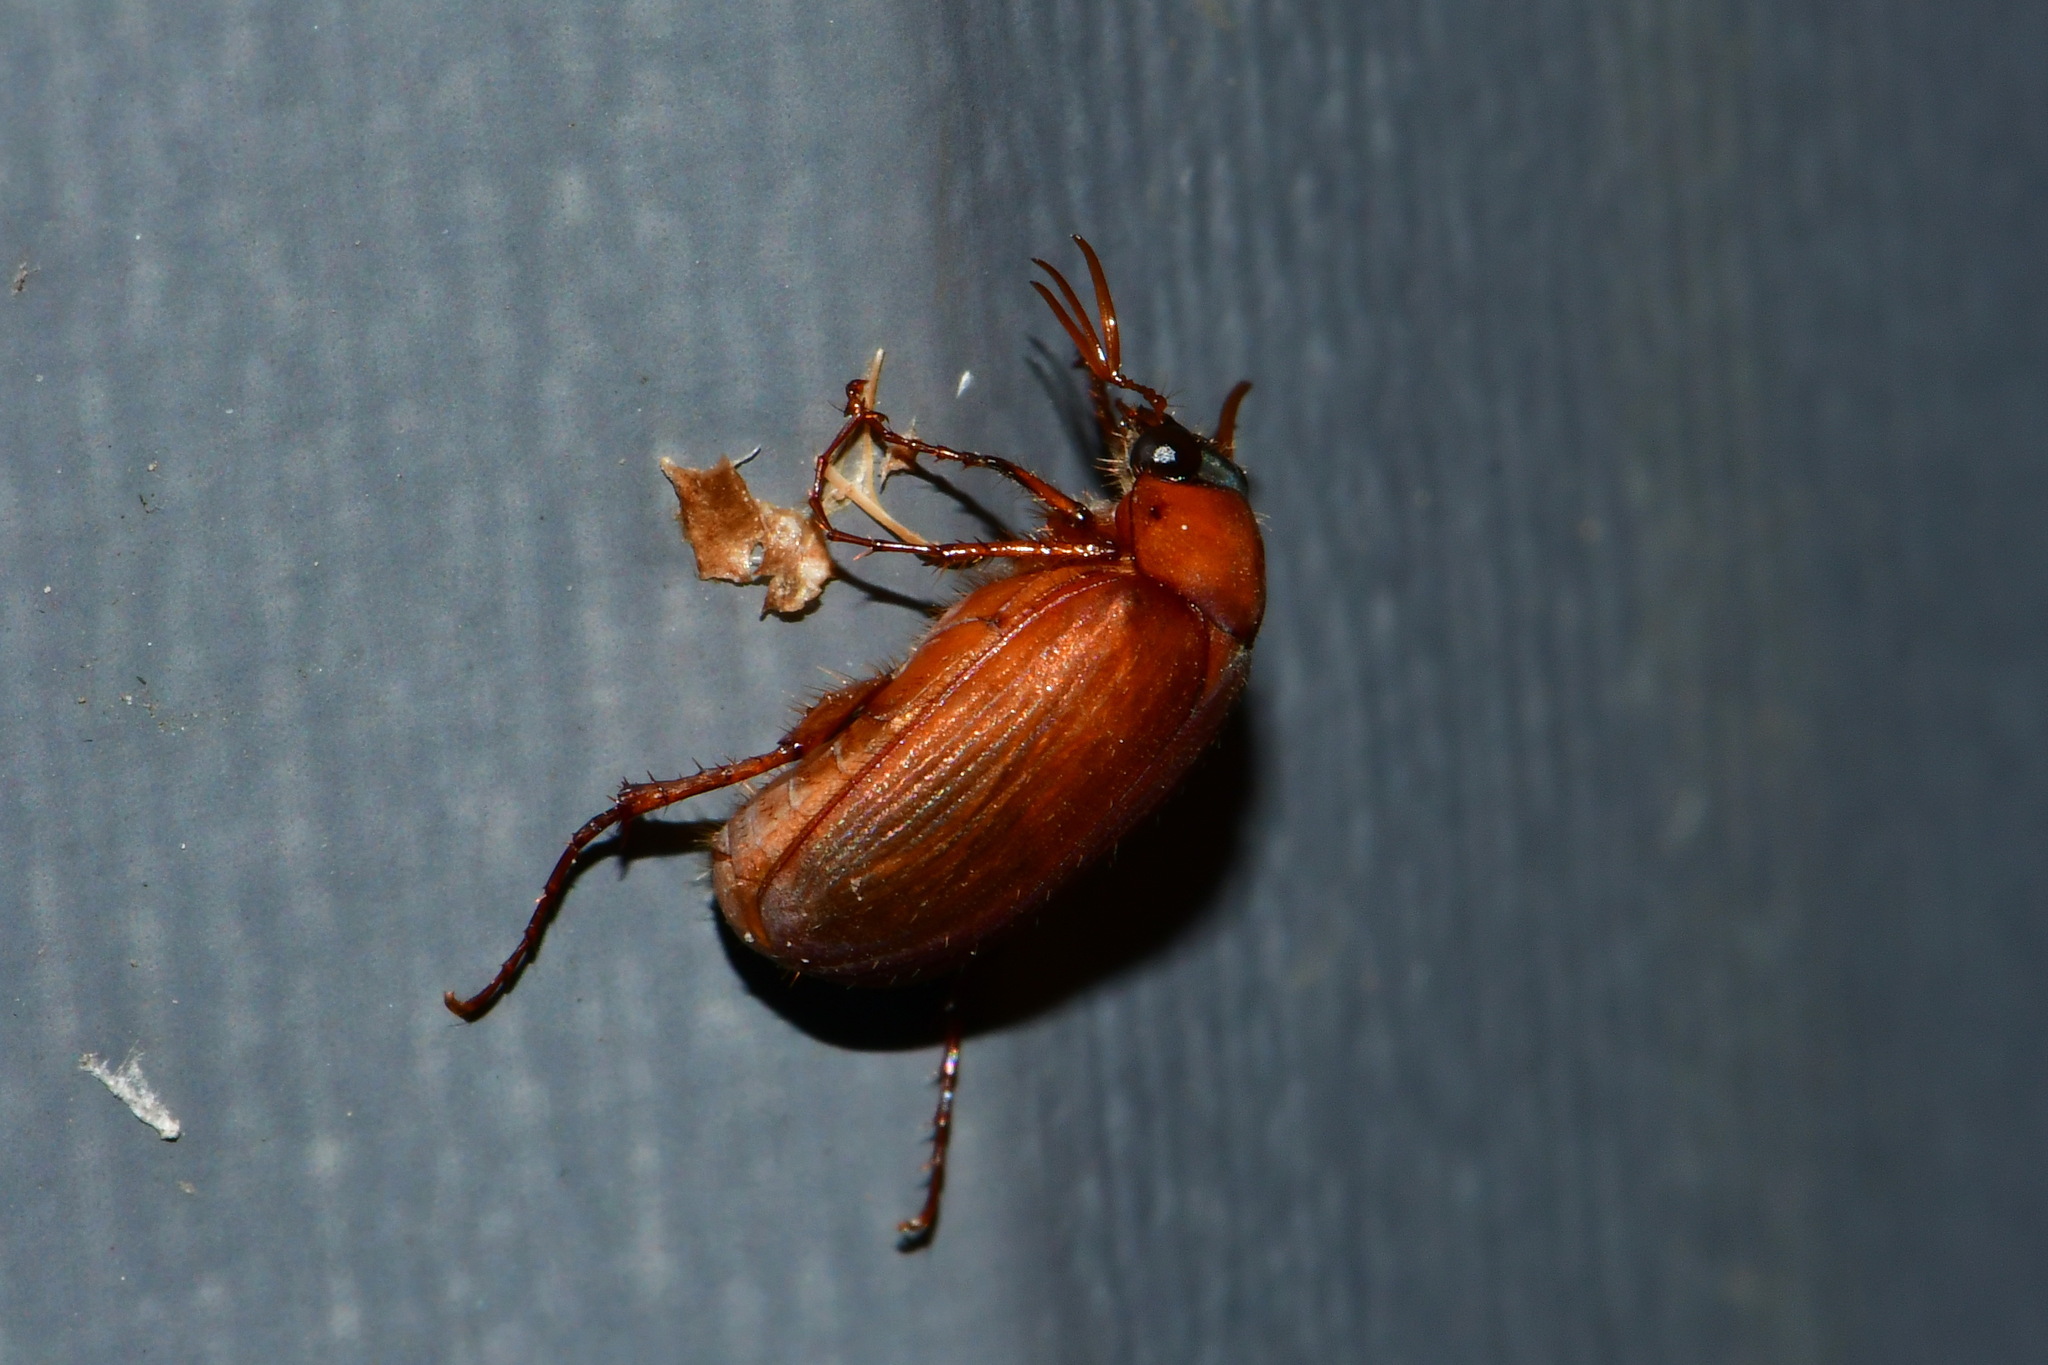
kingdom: Animalia
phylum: Arthropoda
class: Insecta
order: Coleoptera
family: Scarabaeidae
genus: Serica
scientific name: Serica brunnea
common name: Brown chafer
